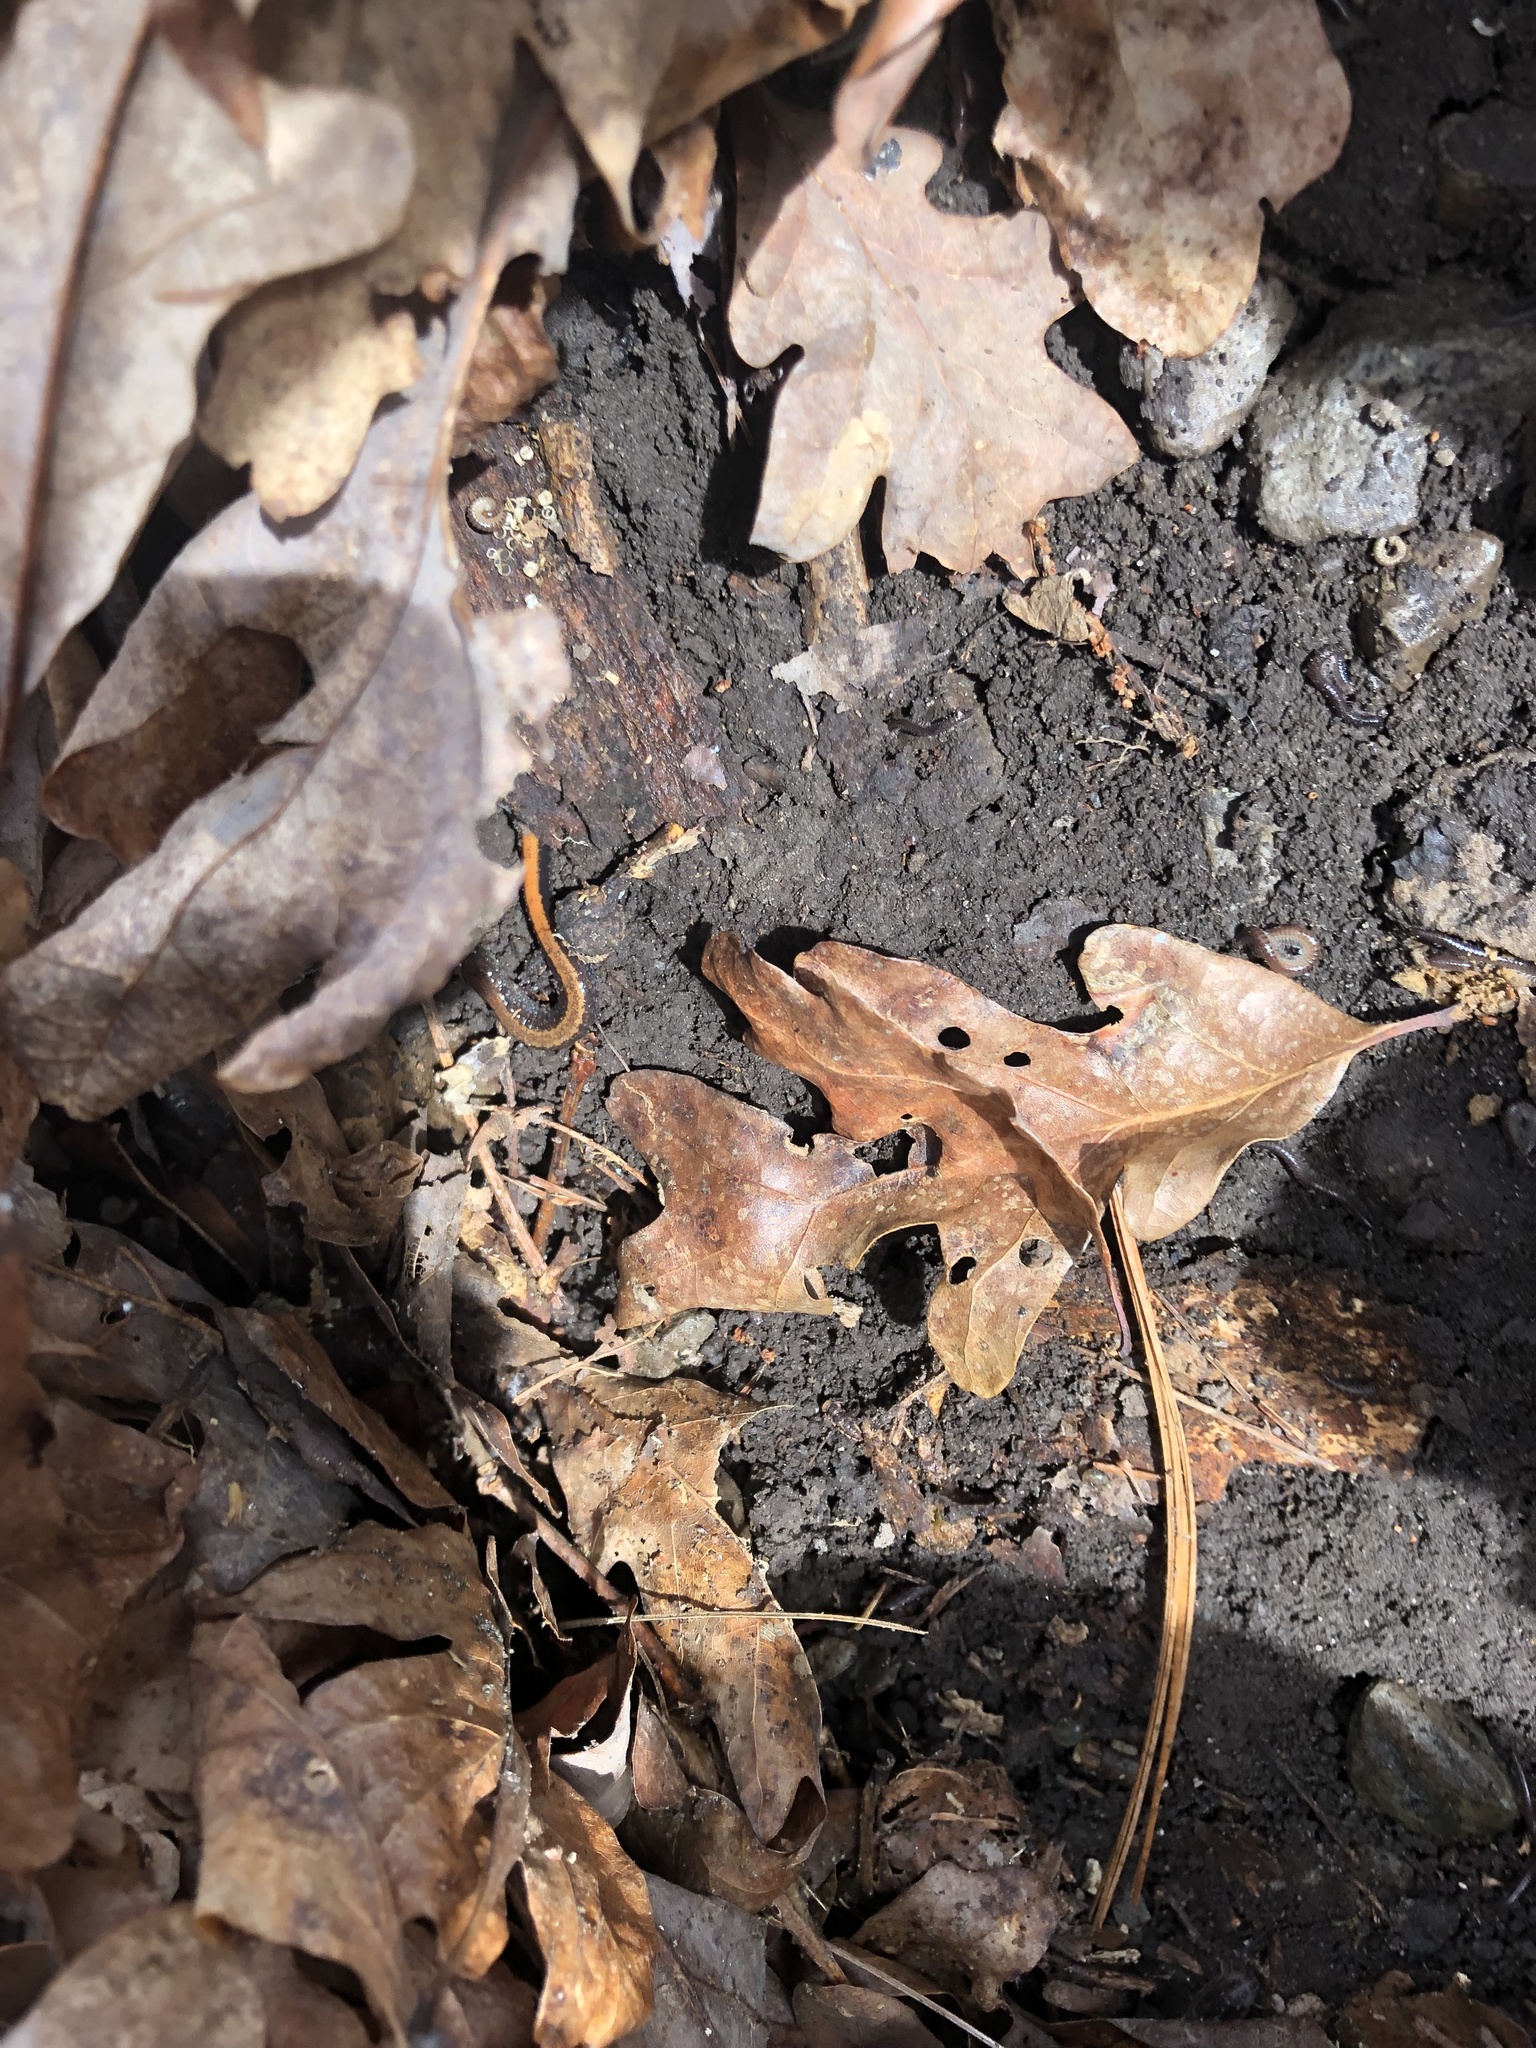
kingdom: Animalia
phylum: Chordata
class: Amphibia
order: Caudata
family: Plethodontidae
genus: Plethodon
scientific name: Plethodon cinereus
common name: Redback salamander
